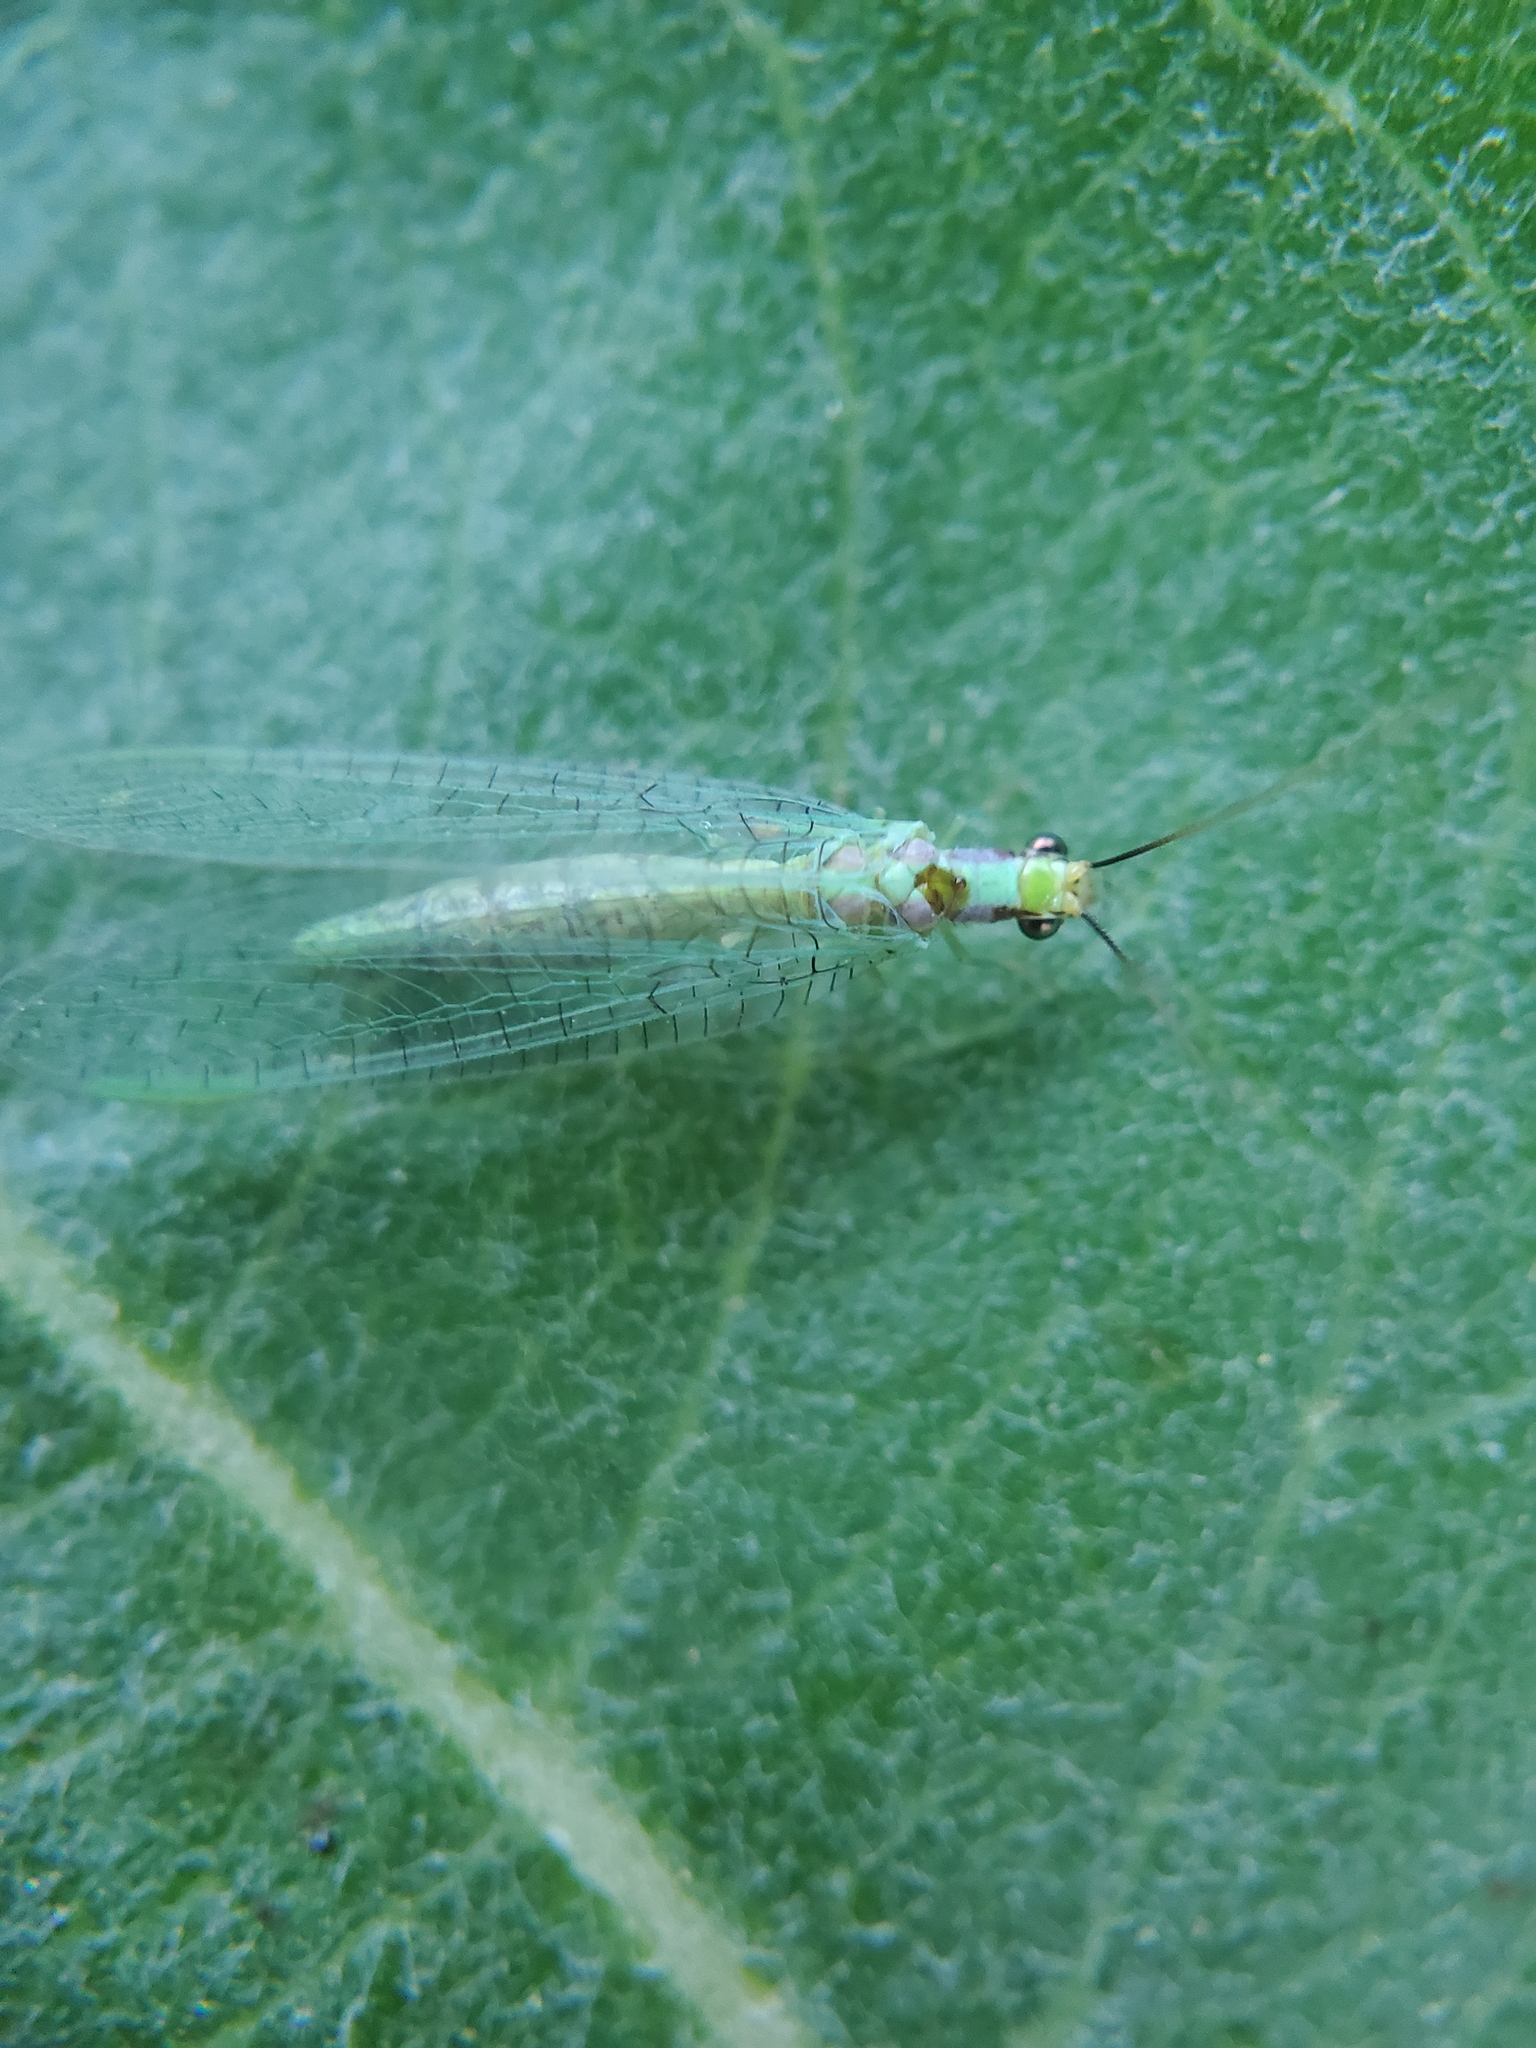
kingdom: Animalia
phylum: Arthropoda
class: Insecta
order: Neuroptera
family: Chrysopidae
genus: Chrysopa
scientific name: Chrysopa coloradensis
